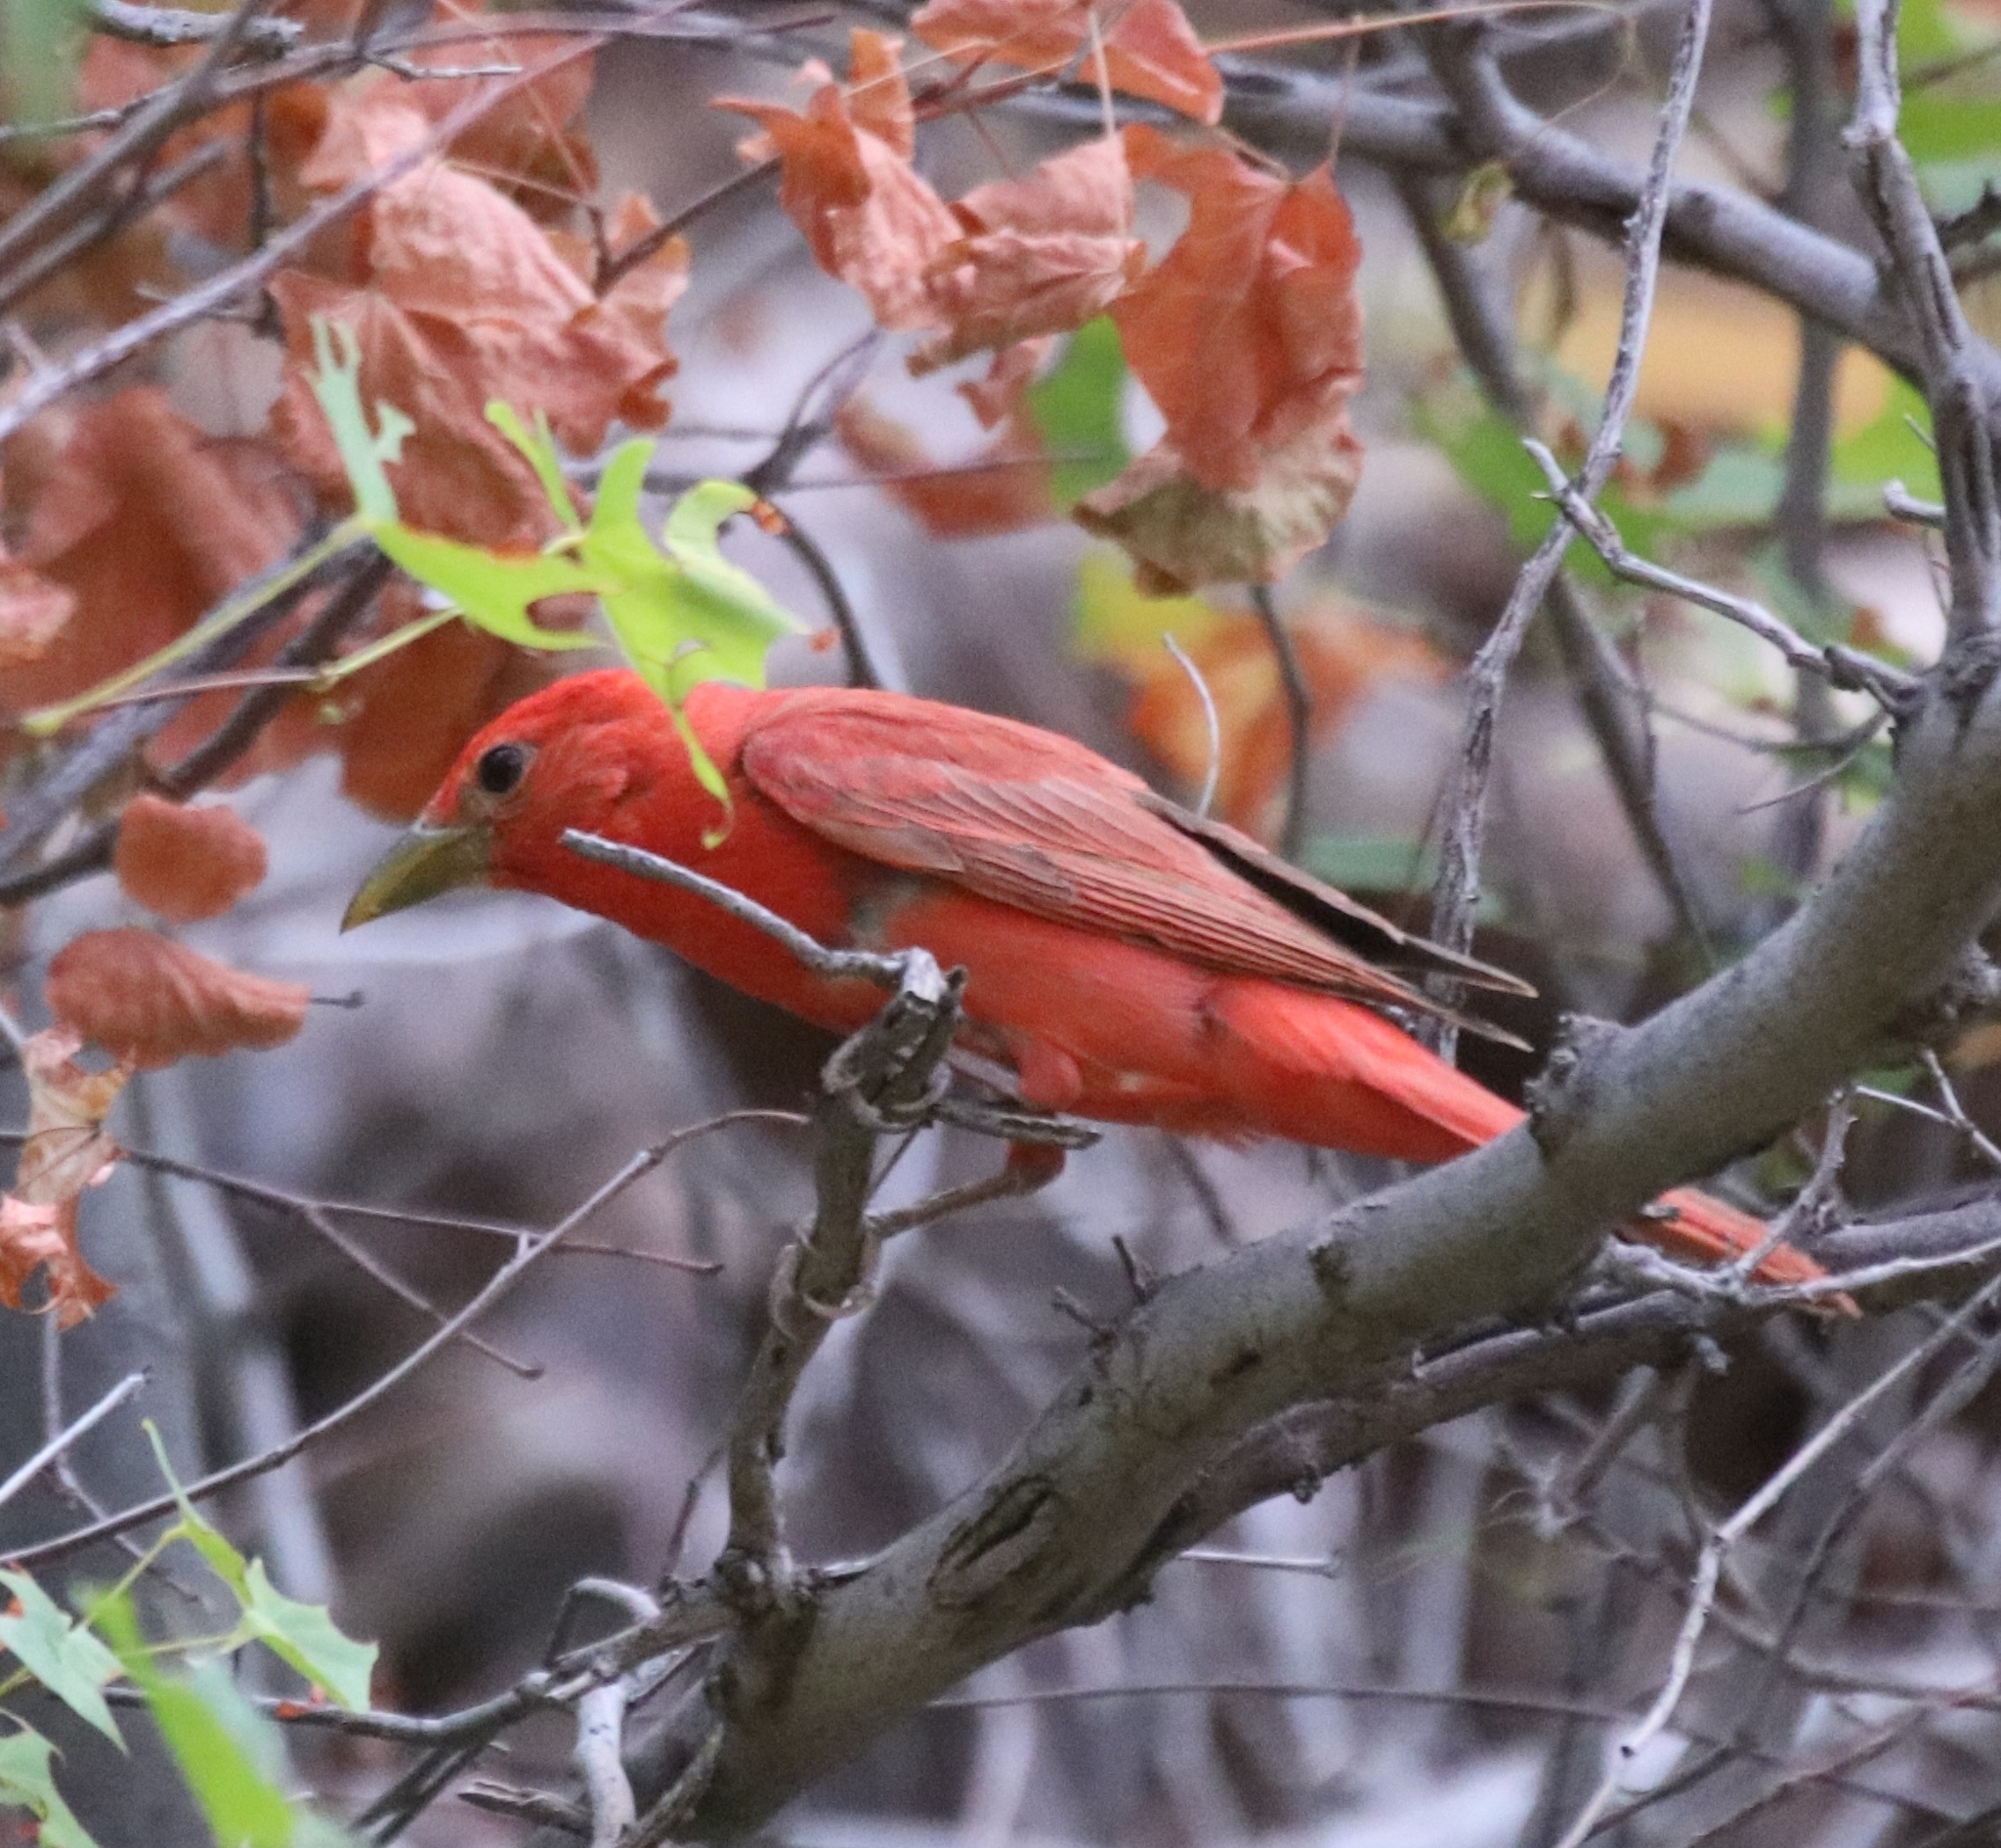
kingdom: Animalia
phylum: Chordata
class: Aves
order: Passeriformes
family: Cardinalidae
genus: Piranga
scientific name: Piranga rubra
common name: Summer tanager
